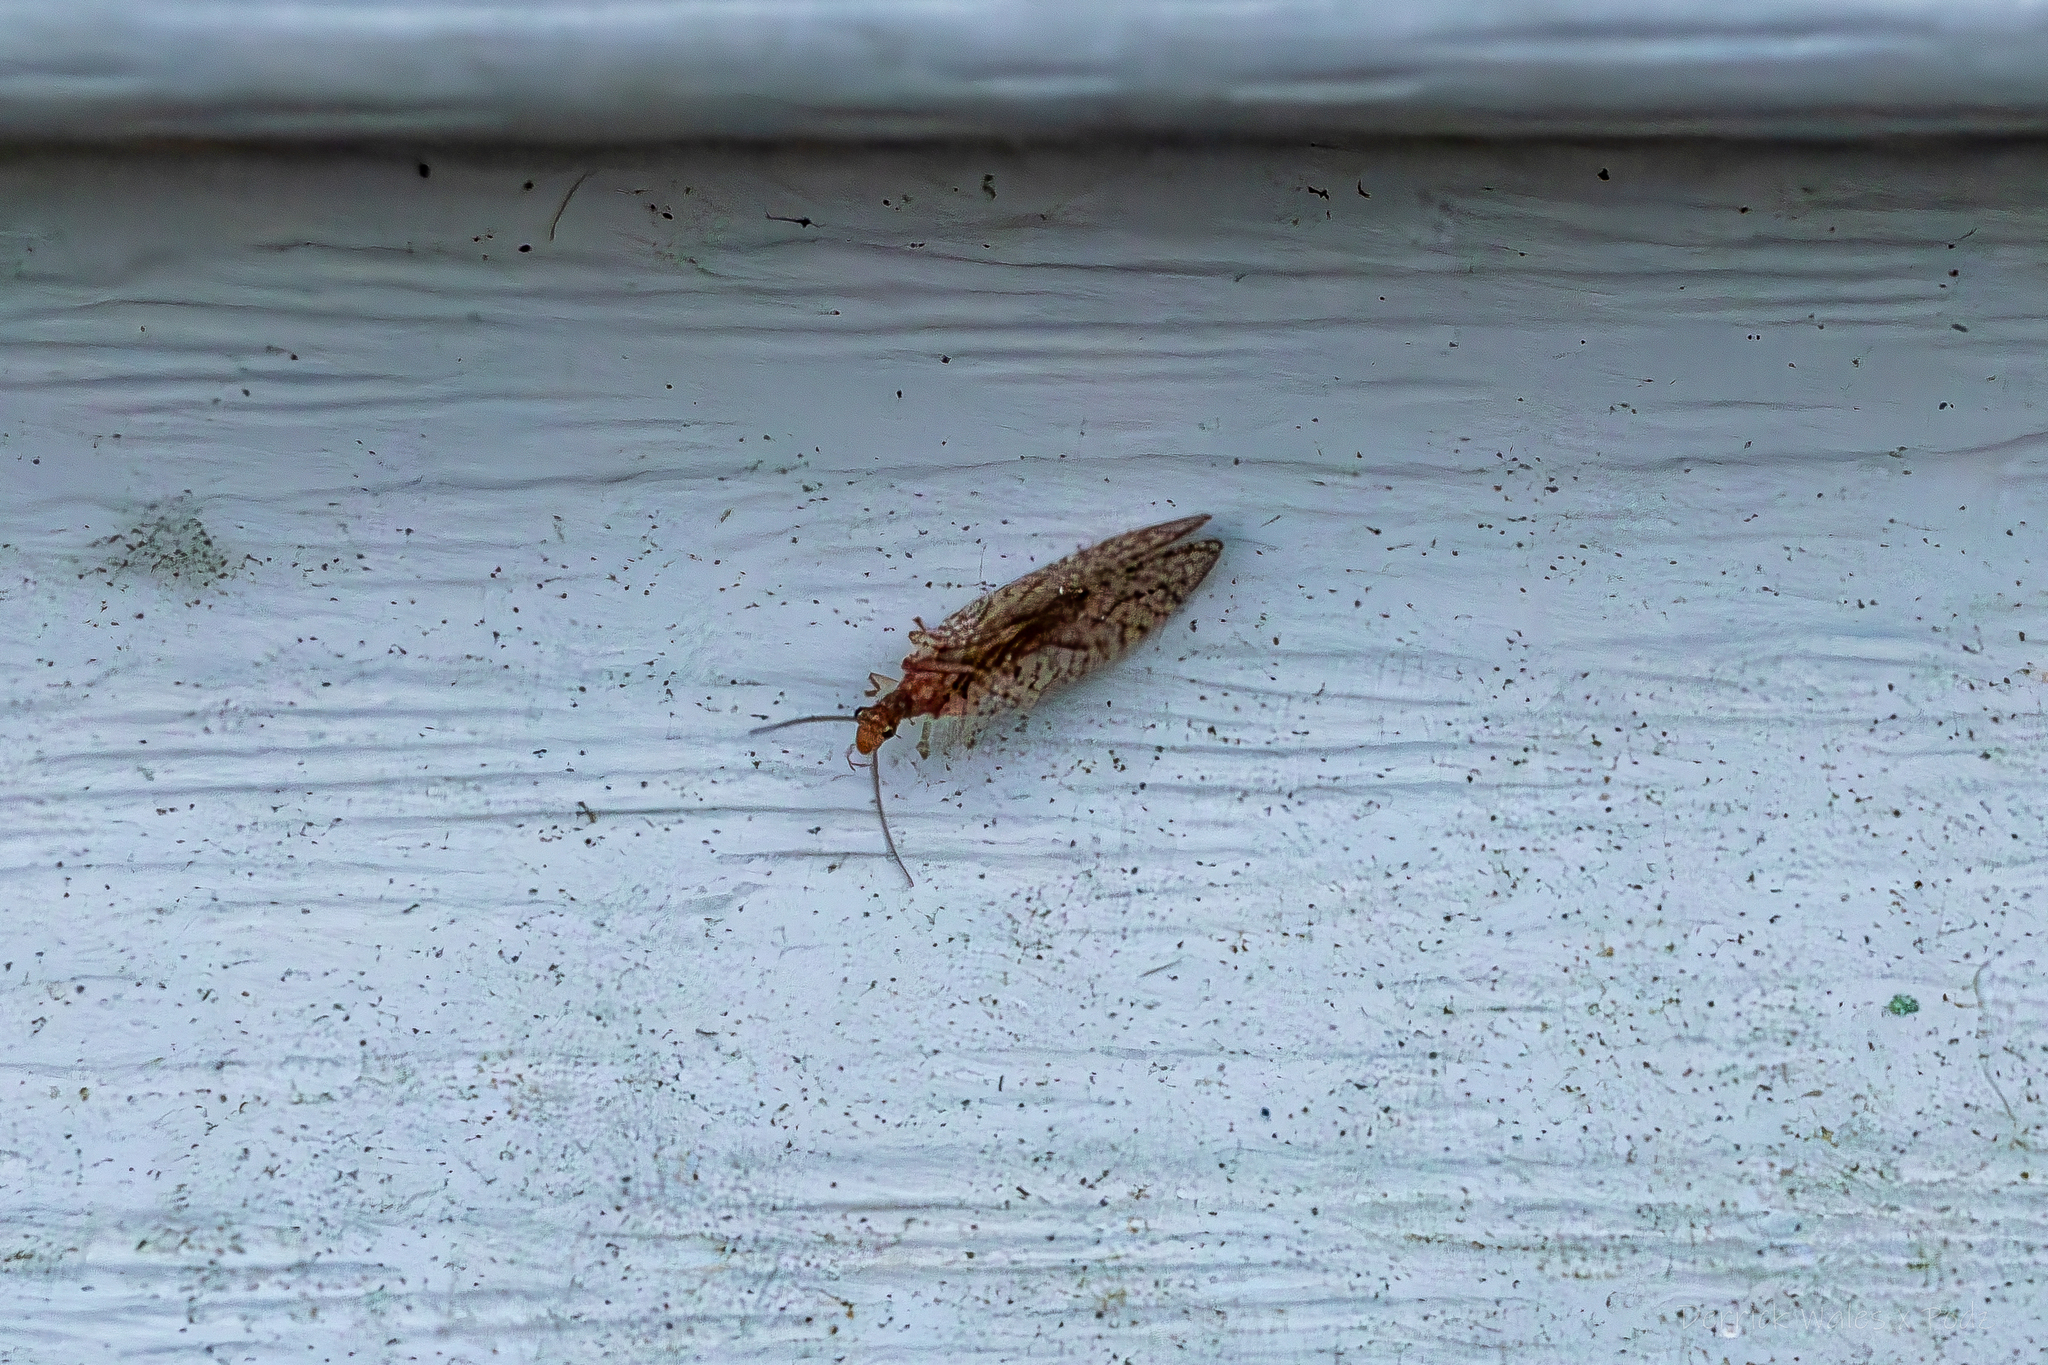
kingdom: Animalia
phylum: Arthropoda
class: Insecta
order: Neuroptera
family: Hemerobiidae
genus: Micromus
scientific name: Micromus posticus
